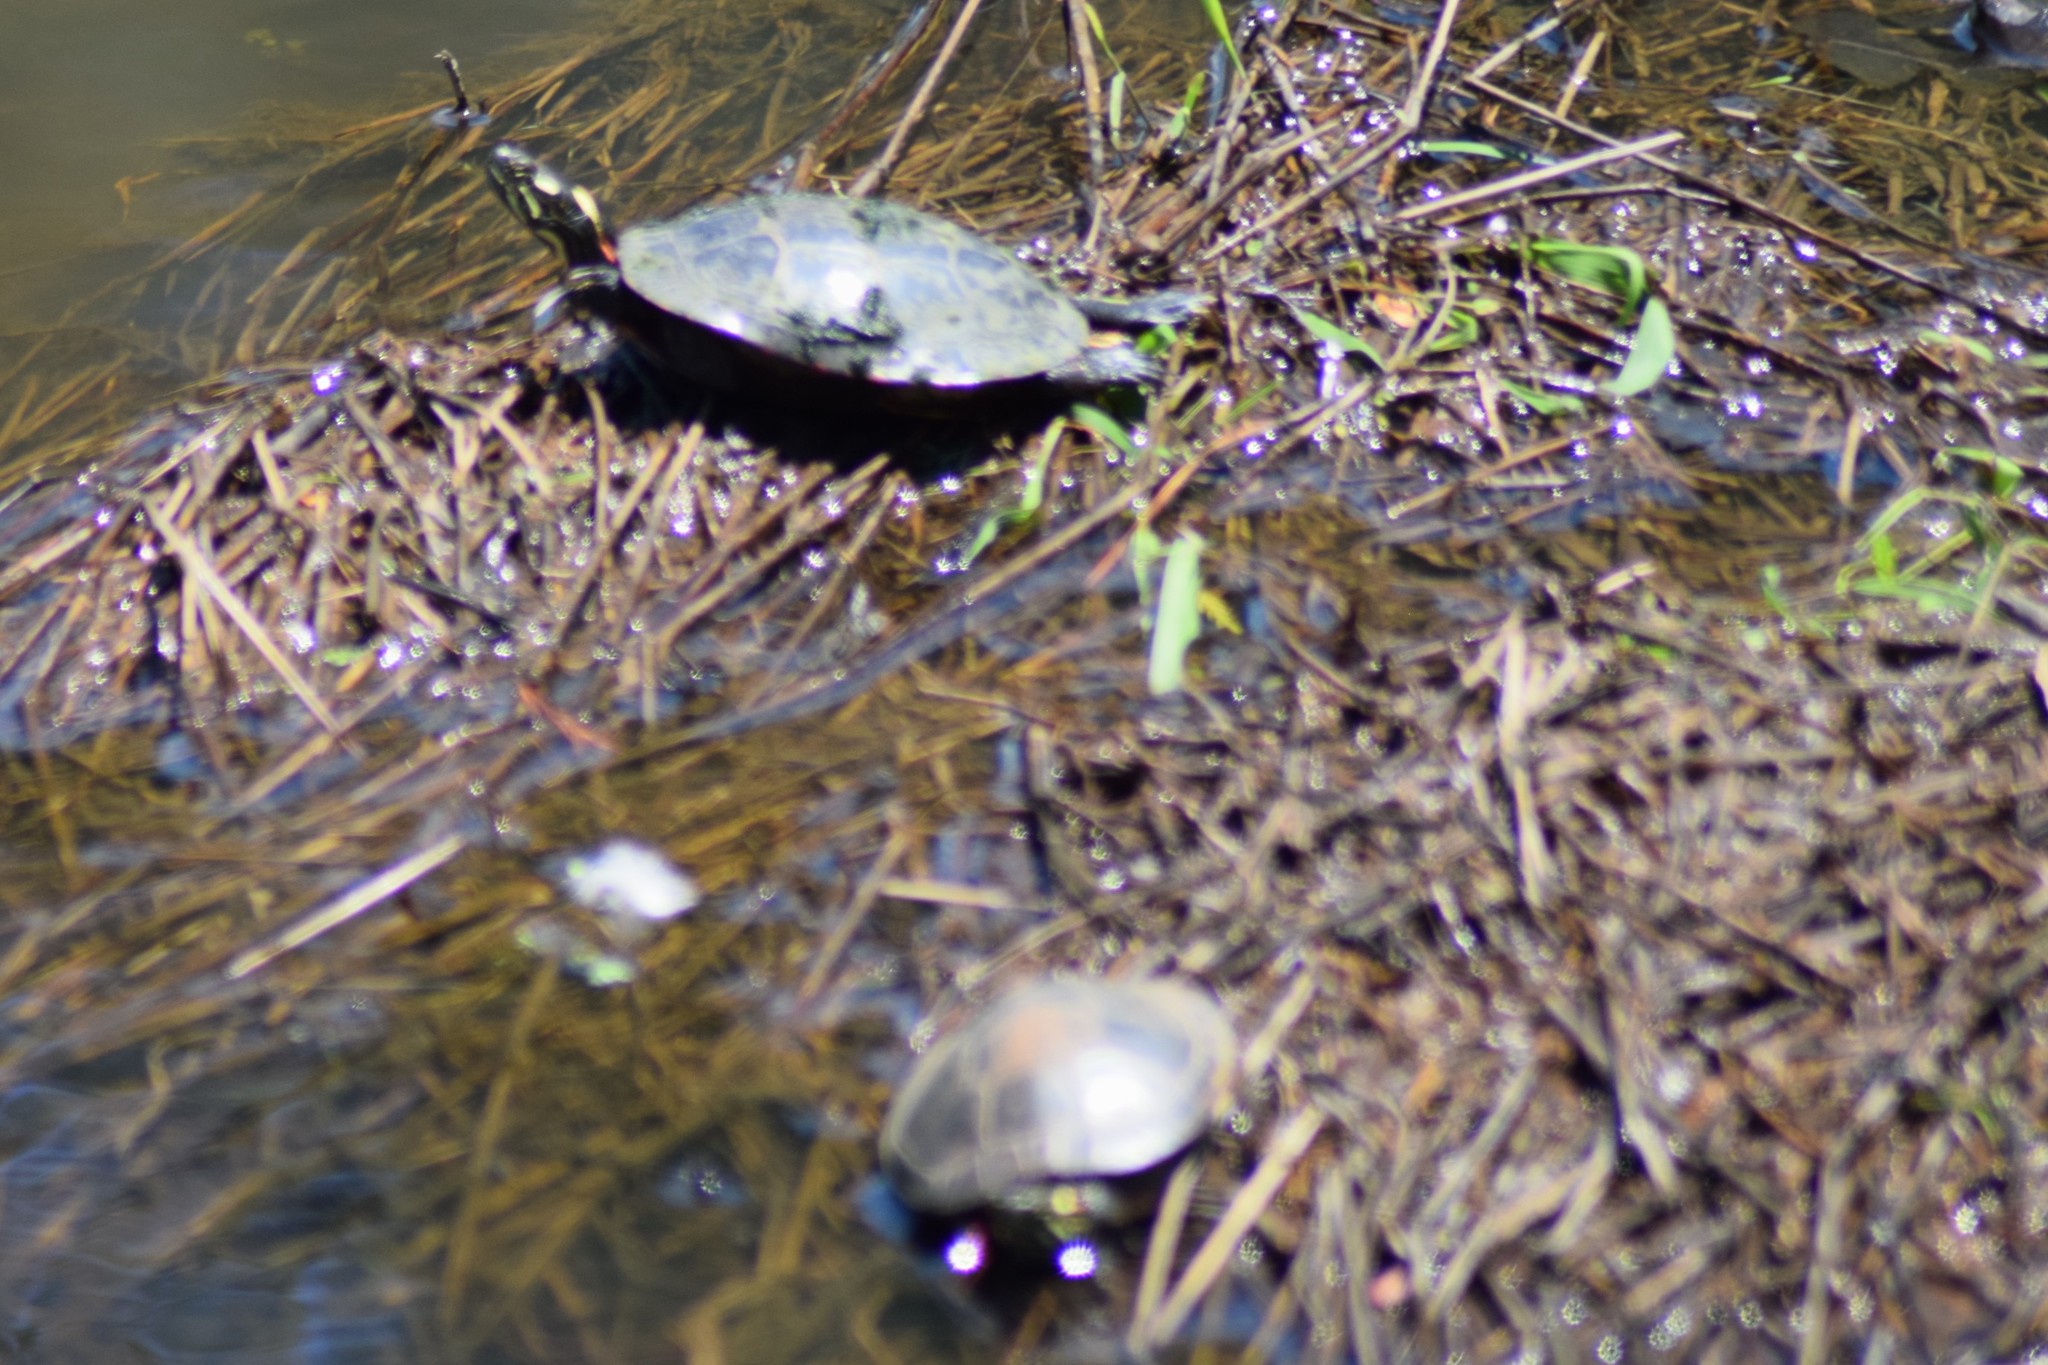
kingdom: Animalia
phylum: Chordata
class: Testudines
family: Emydidae
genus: Chrysemys
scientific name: Chrysemys picta
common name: Painted turtle
